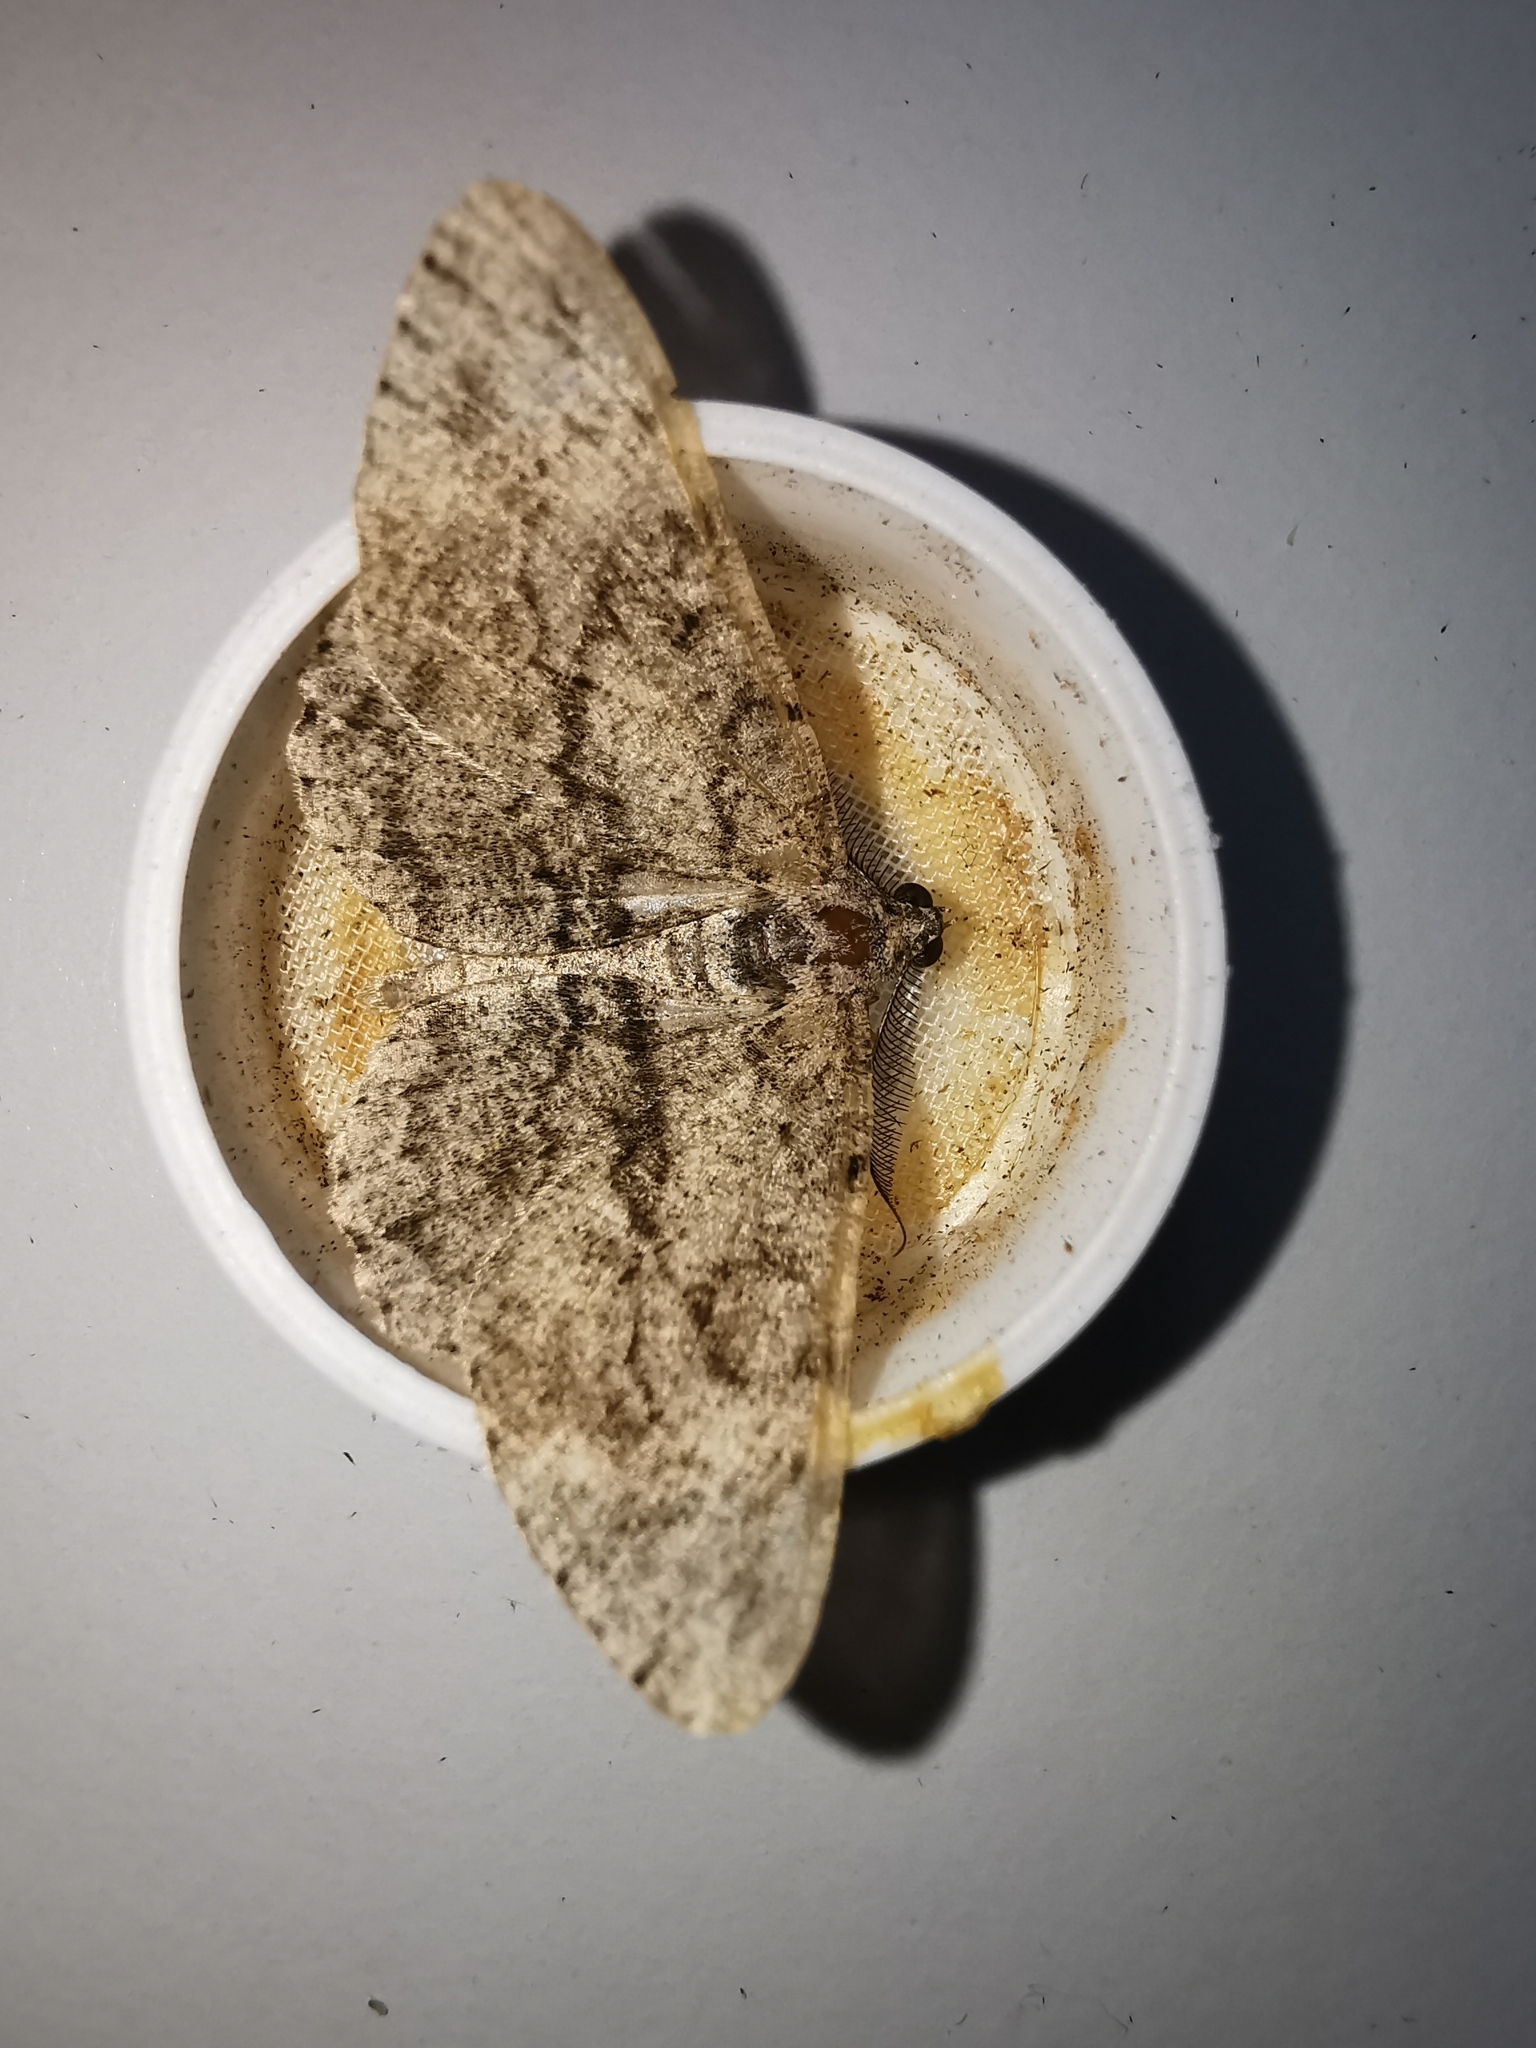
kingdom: Animalia
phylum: Arthropoda
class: Insecta
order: Lepidoptera
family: Geometridae
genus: Peribatodes
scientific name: Peribatodes rhomboidaria
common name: Willow beauty
